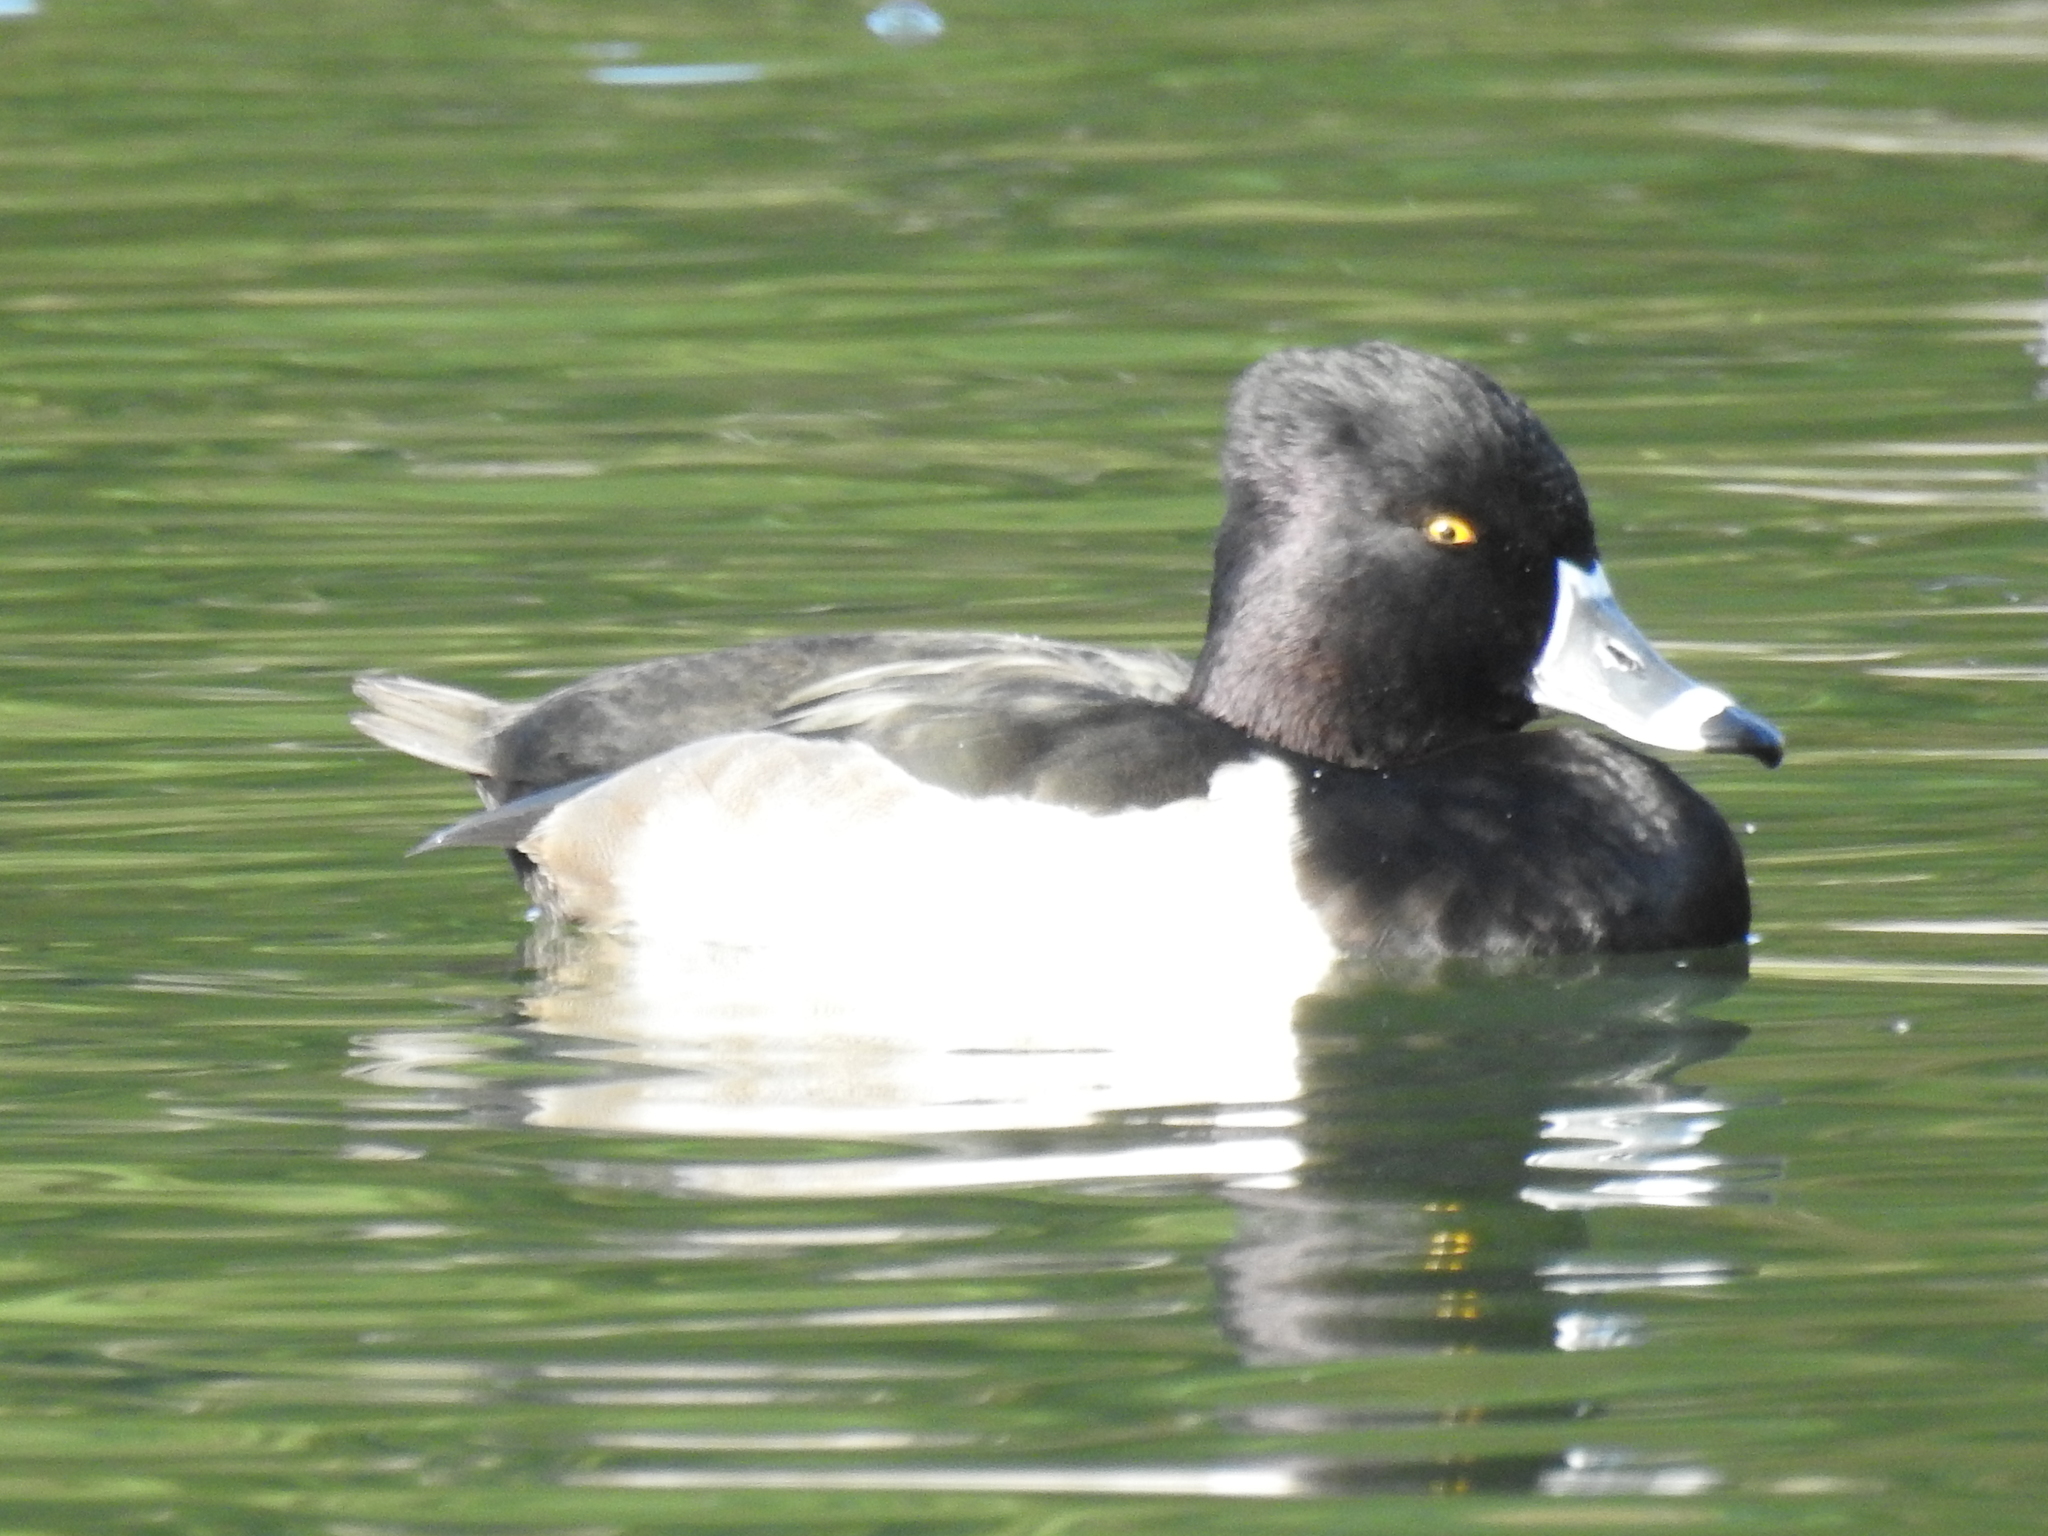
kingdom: Animalia
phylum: Chordata
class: Aves
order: Anseriformes
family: Anatidae
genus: Aythya
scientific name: Aythya collaris
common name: Ring-necked duck
